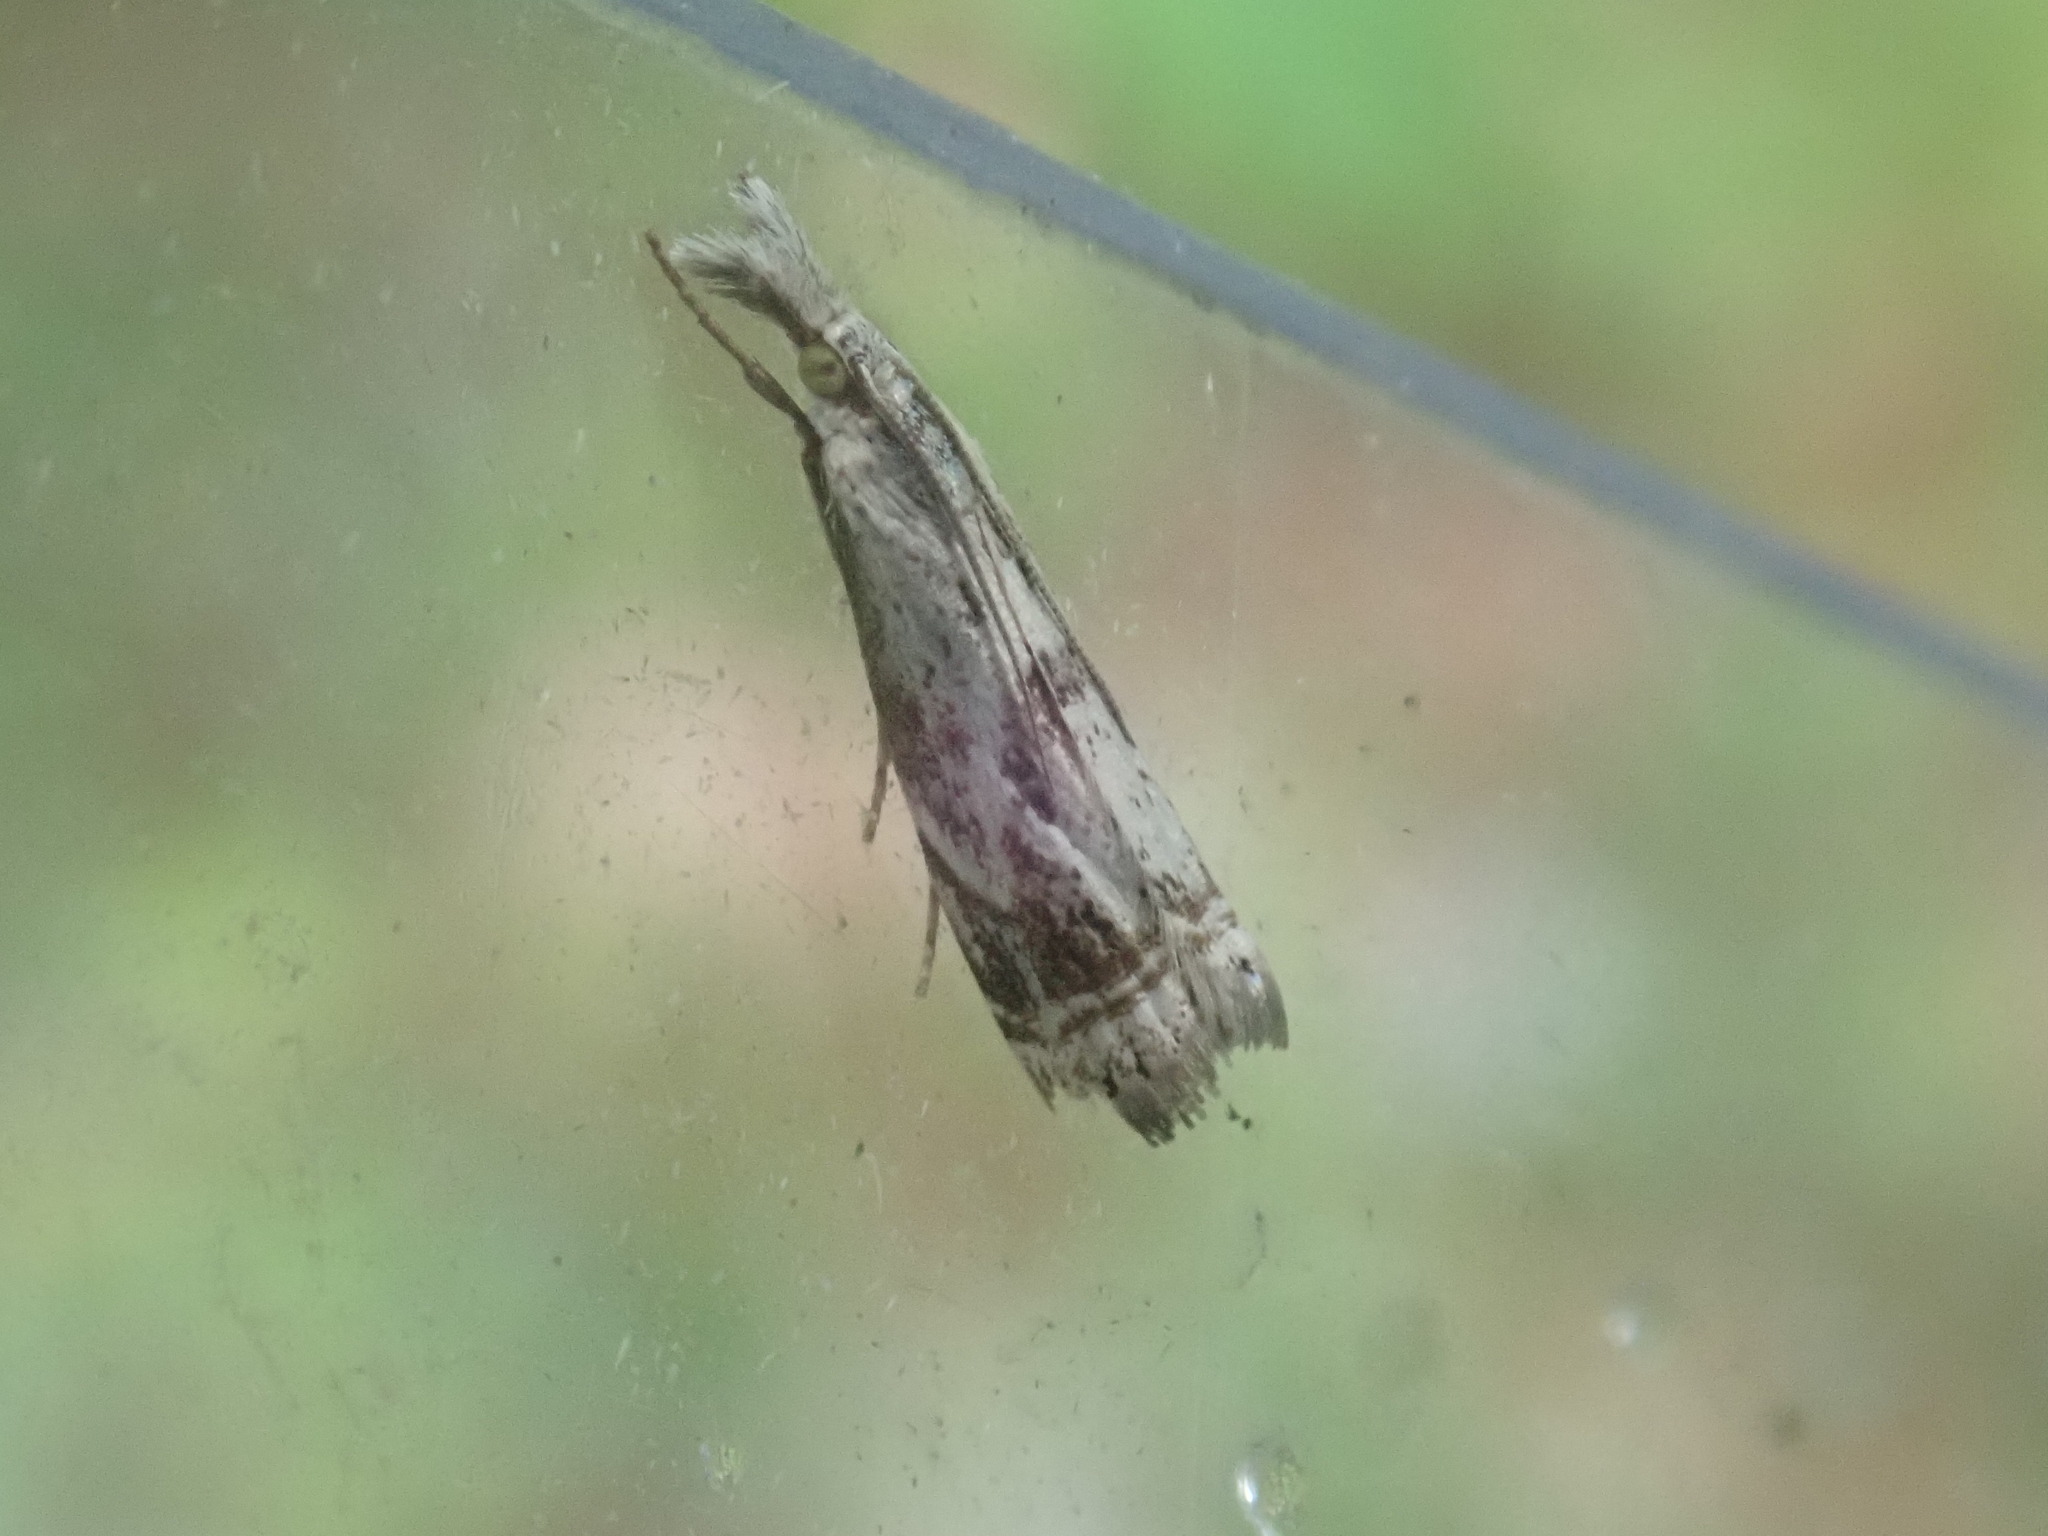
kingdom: Animalia
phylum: Arthropoda
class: Insecta
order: Lepidoptera
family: Crambidae
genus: Microcrambus
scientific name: Microcrambus elegans
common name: Elegant grass-veneer
